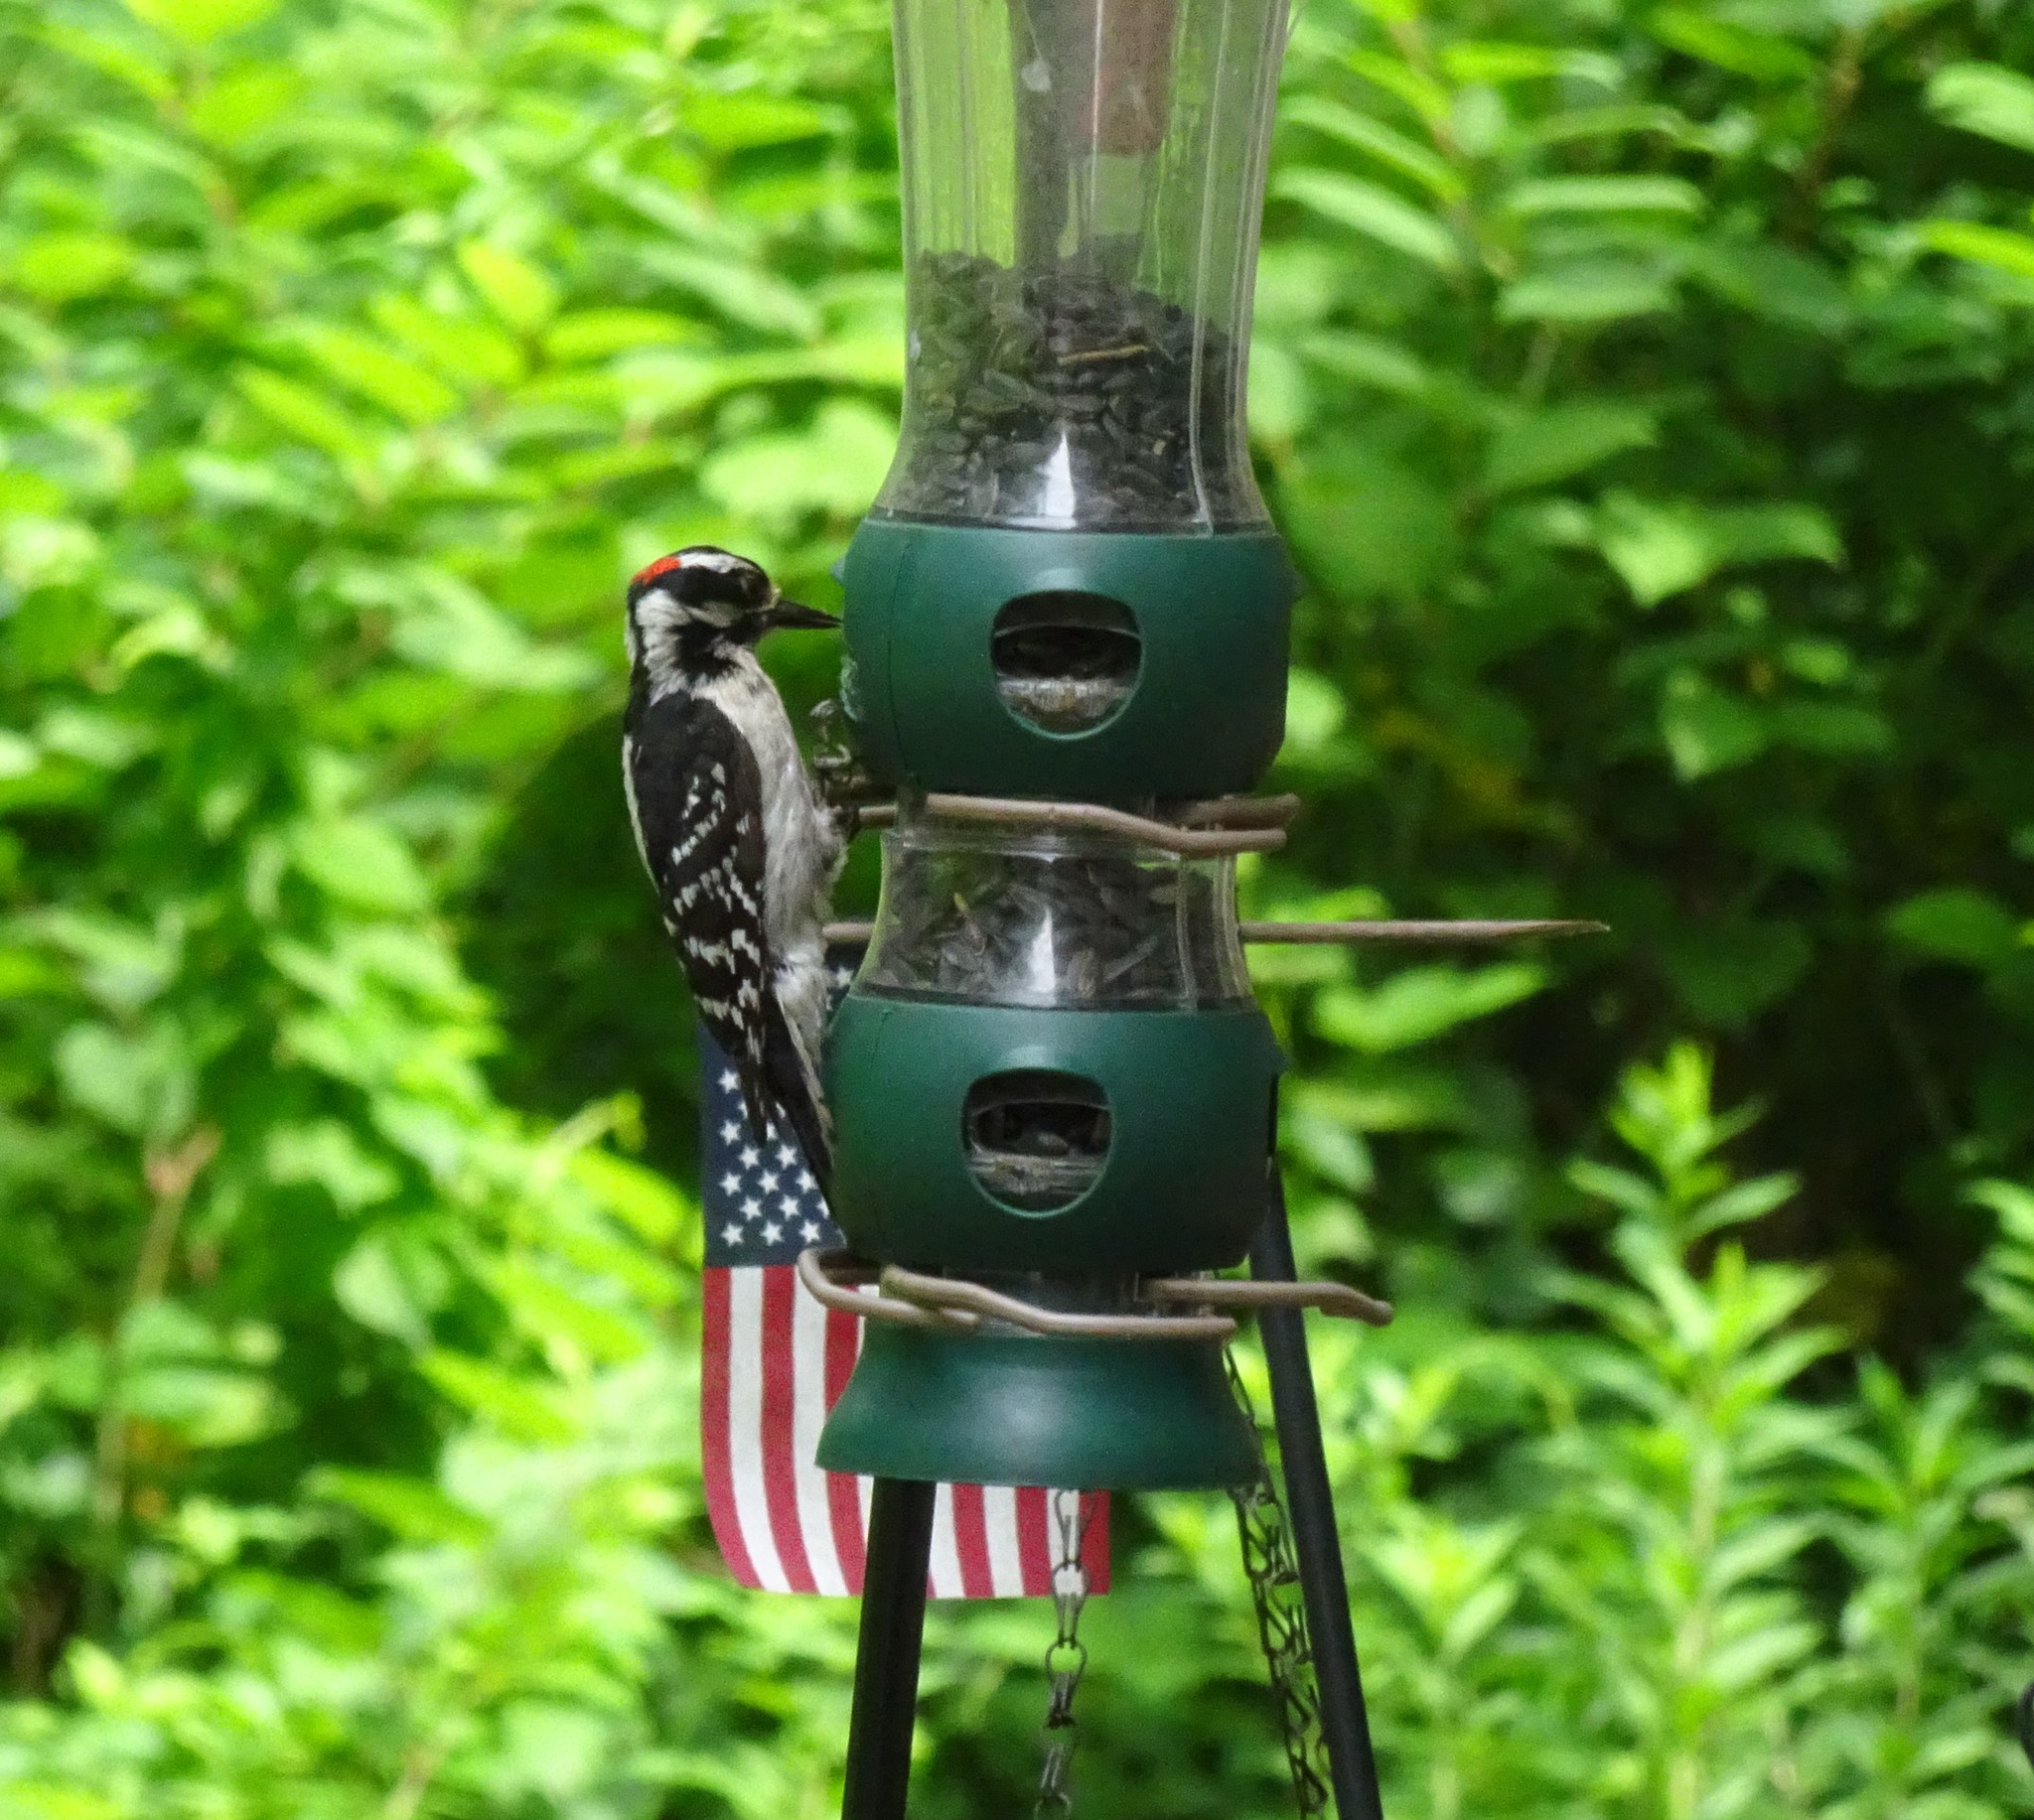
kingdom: Animalia
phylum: Chordata
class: Aves
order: Piciformes
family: Picidae
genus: Dryobates
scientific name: Dryobates pubescens
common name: Downy woodpecker
